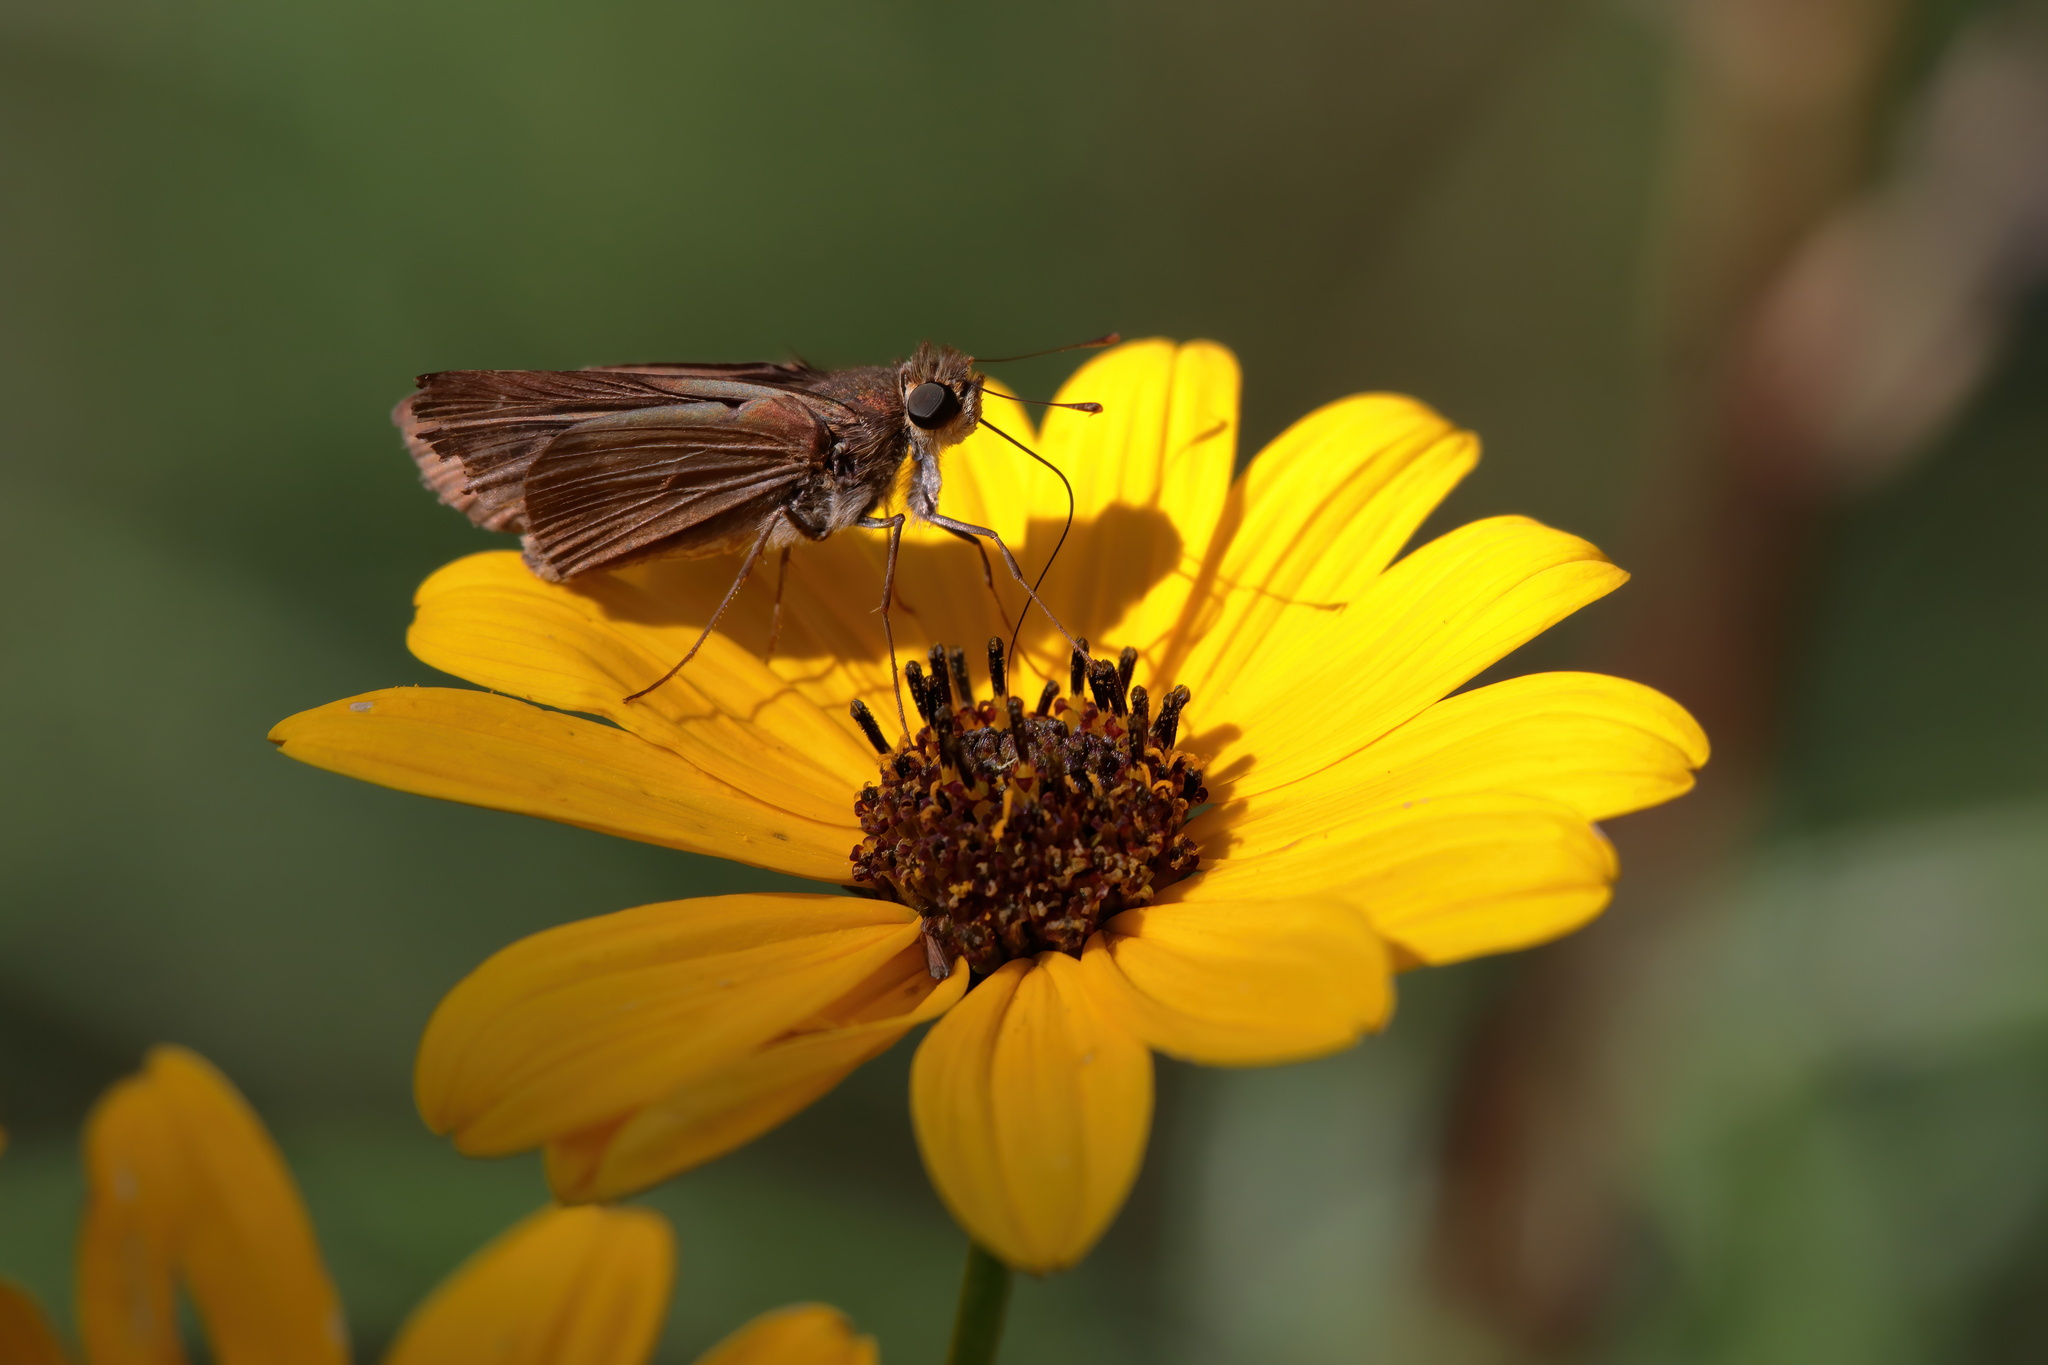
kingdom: Animalia
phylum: Arthropoda
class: Insecta
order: Lepidoptera
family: Hesperiidae
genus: Panoquina
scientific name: Panoquina ocola
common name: Ocola skipper
